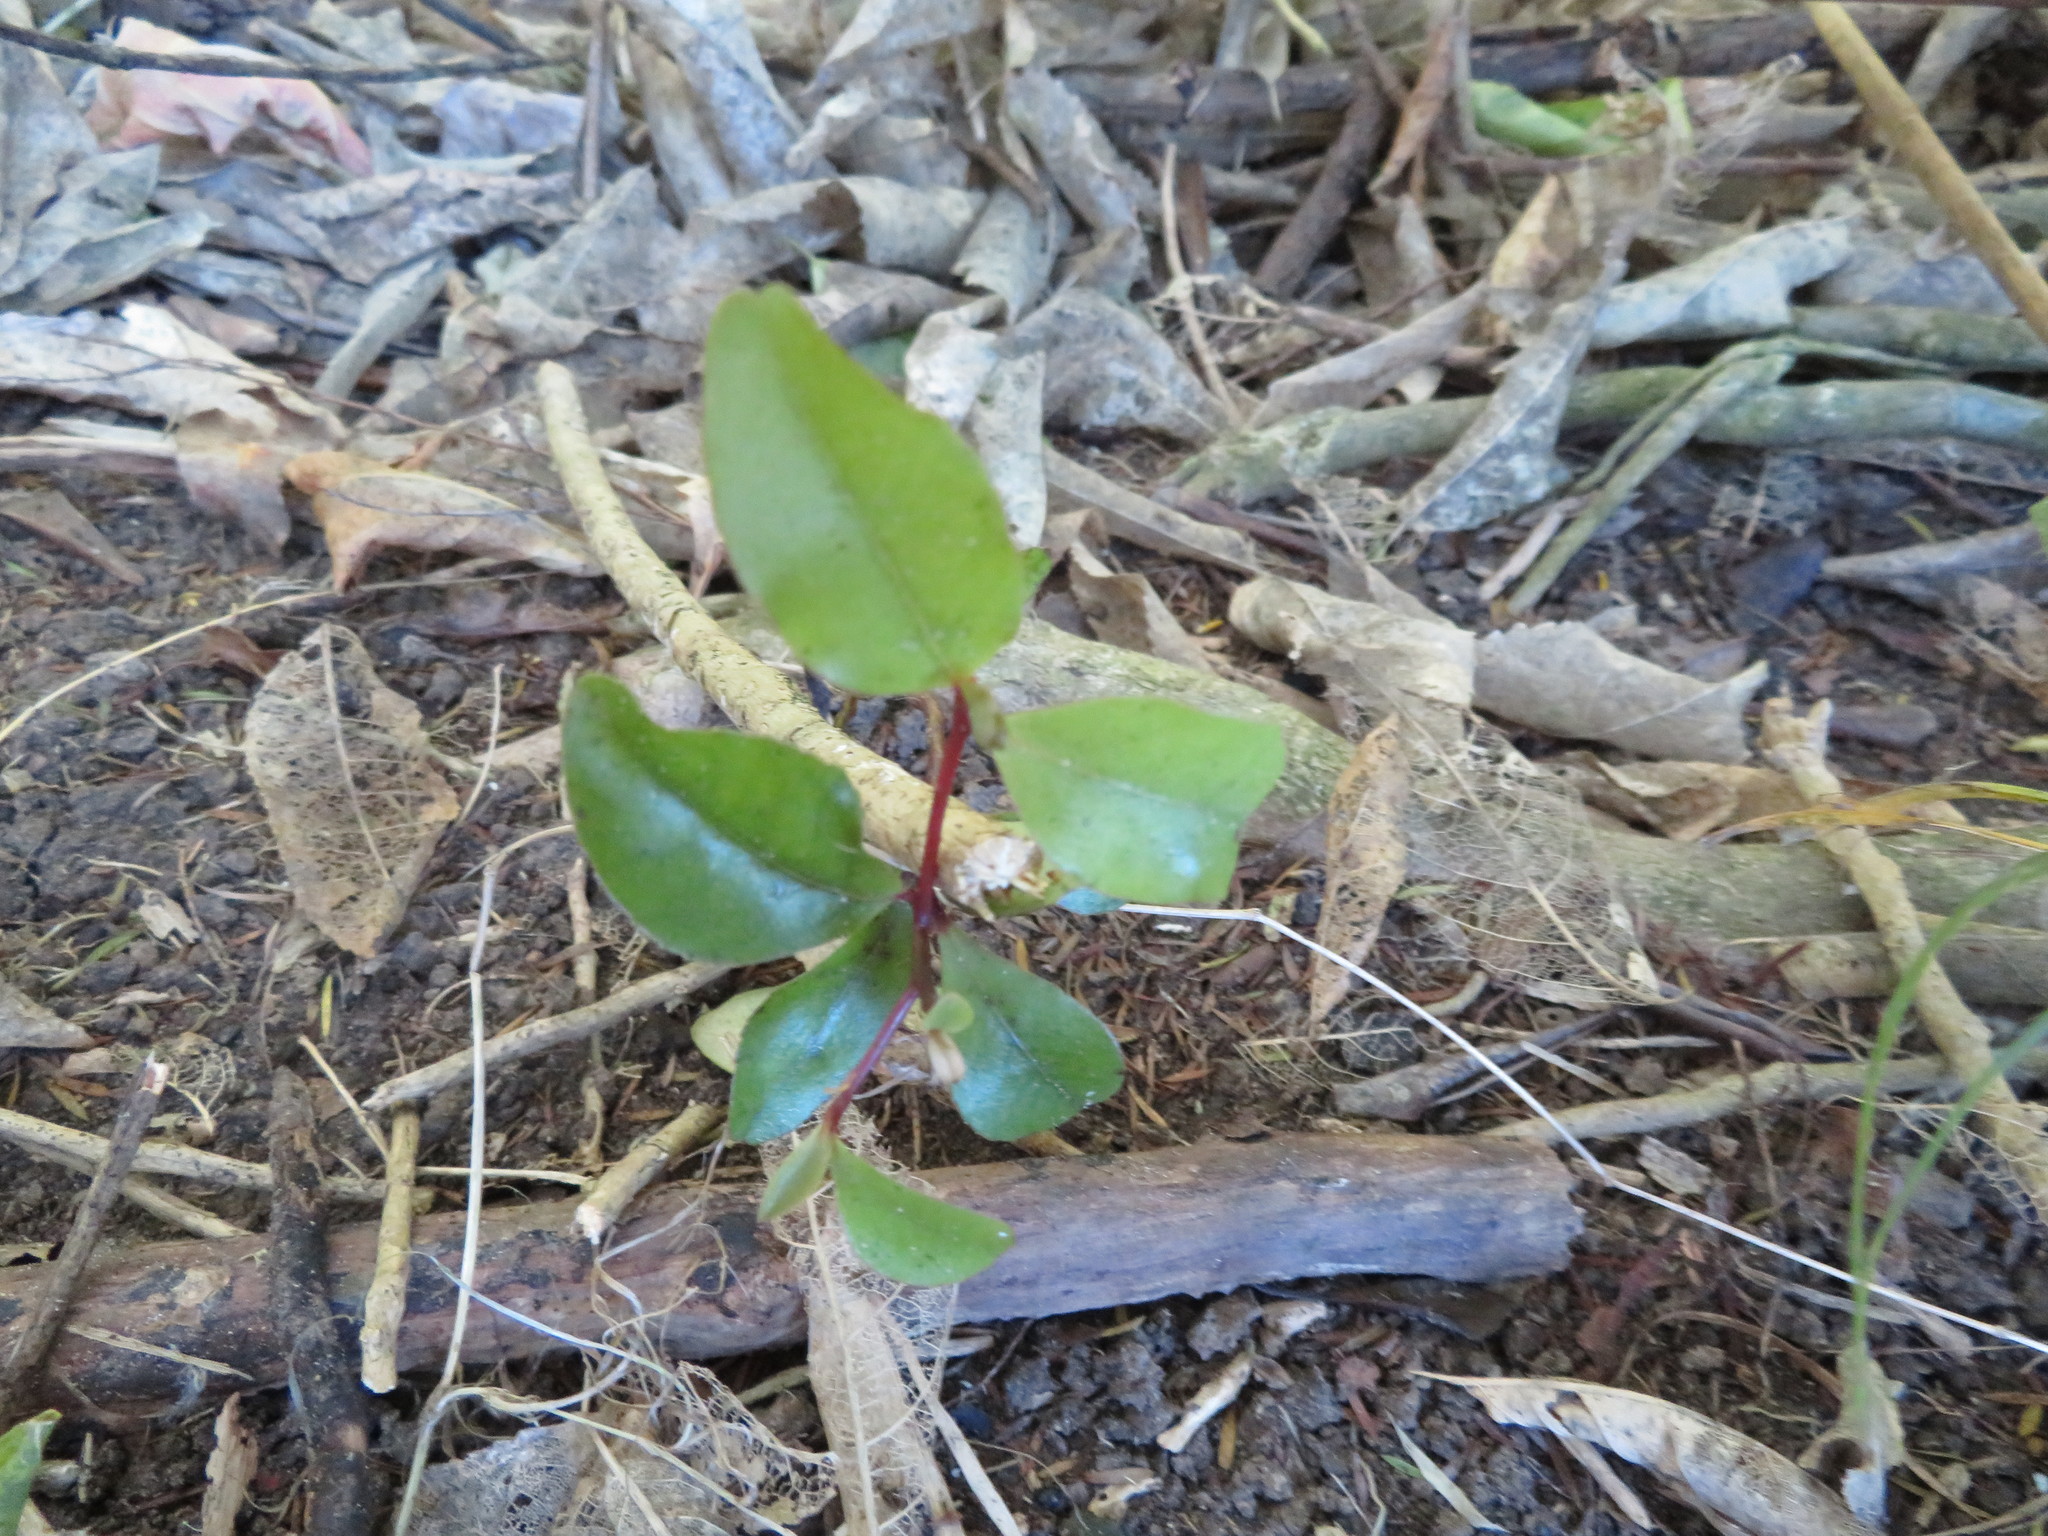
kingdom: Plantae
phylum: Tracheophyta
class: Magnoliopsida
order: Ericales
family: Primulaceae
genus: Myrsine
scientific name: Myrsine australis
